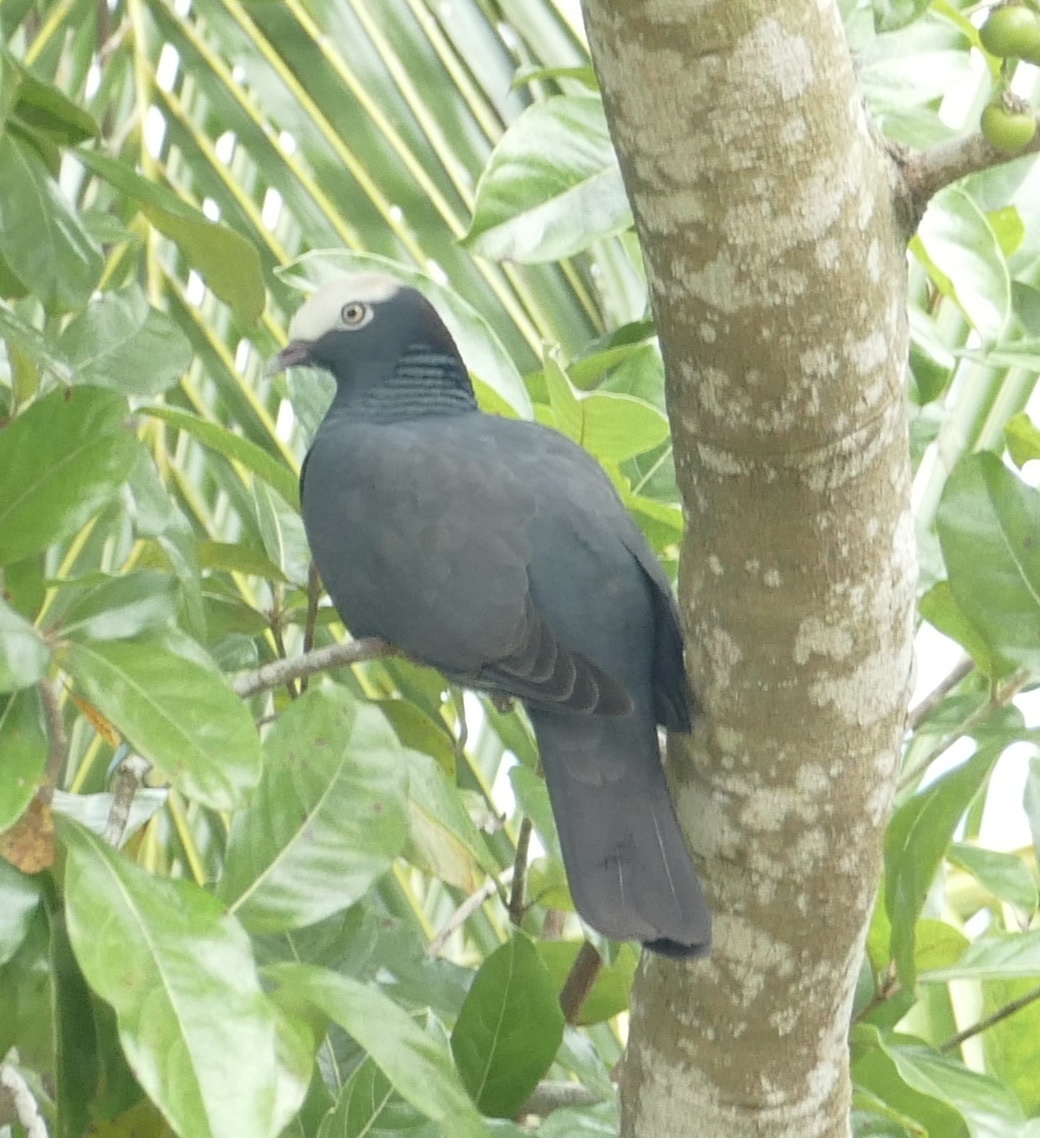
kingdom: Animalia
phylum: Chordata
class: Aves
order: Columbiformes
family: Columbidae
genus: Patagioenas
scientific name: Patagioenas leucocephala
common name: White-crowned pigeon
